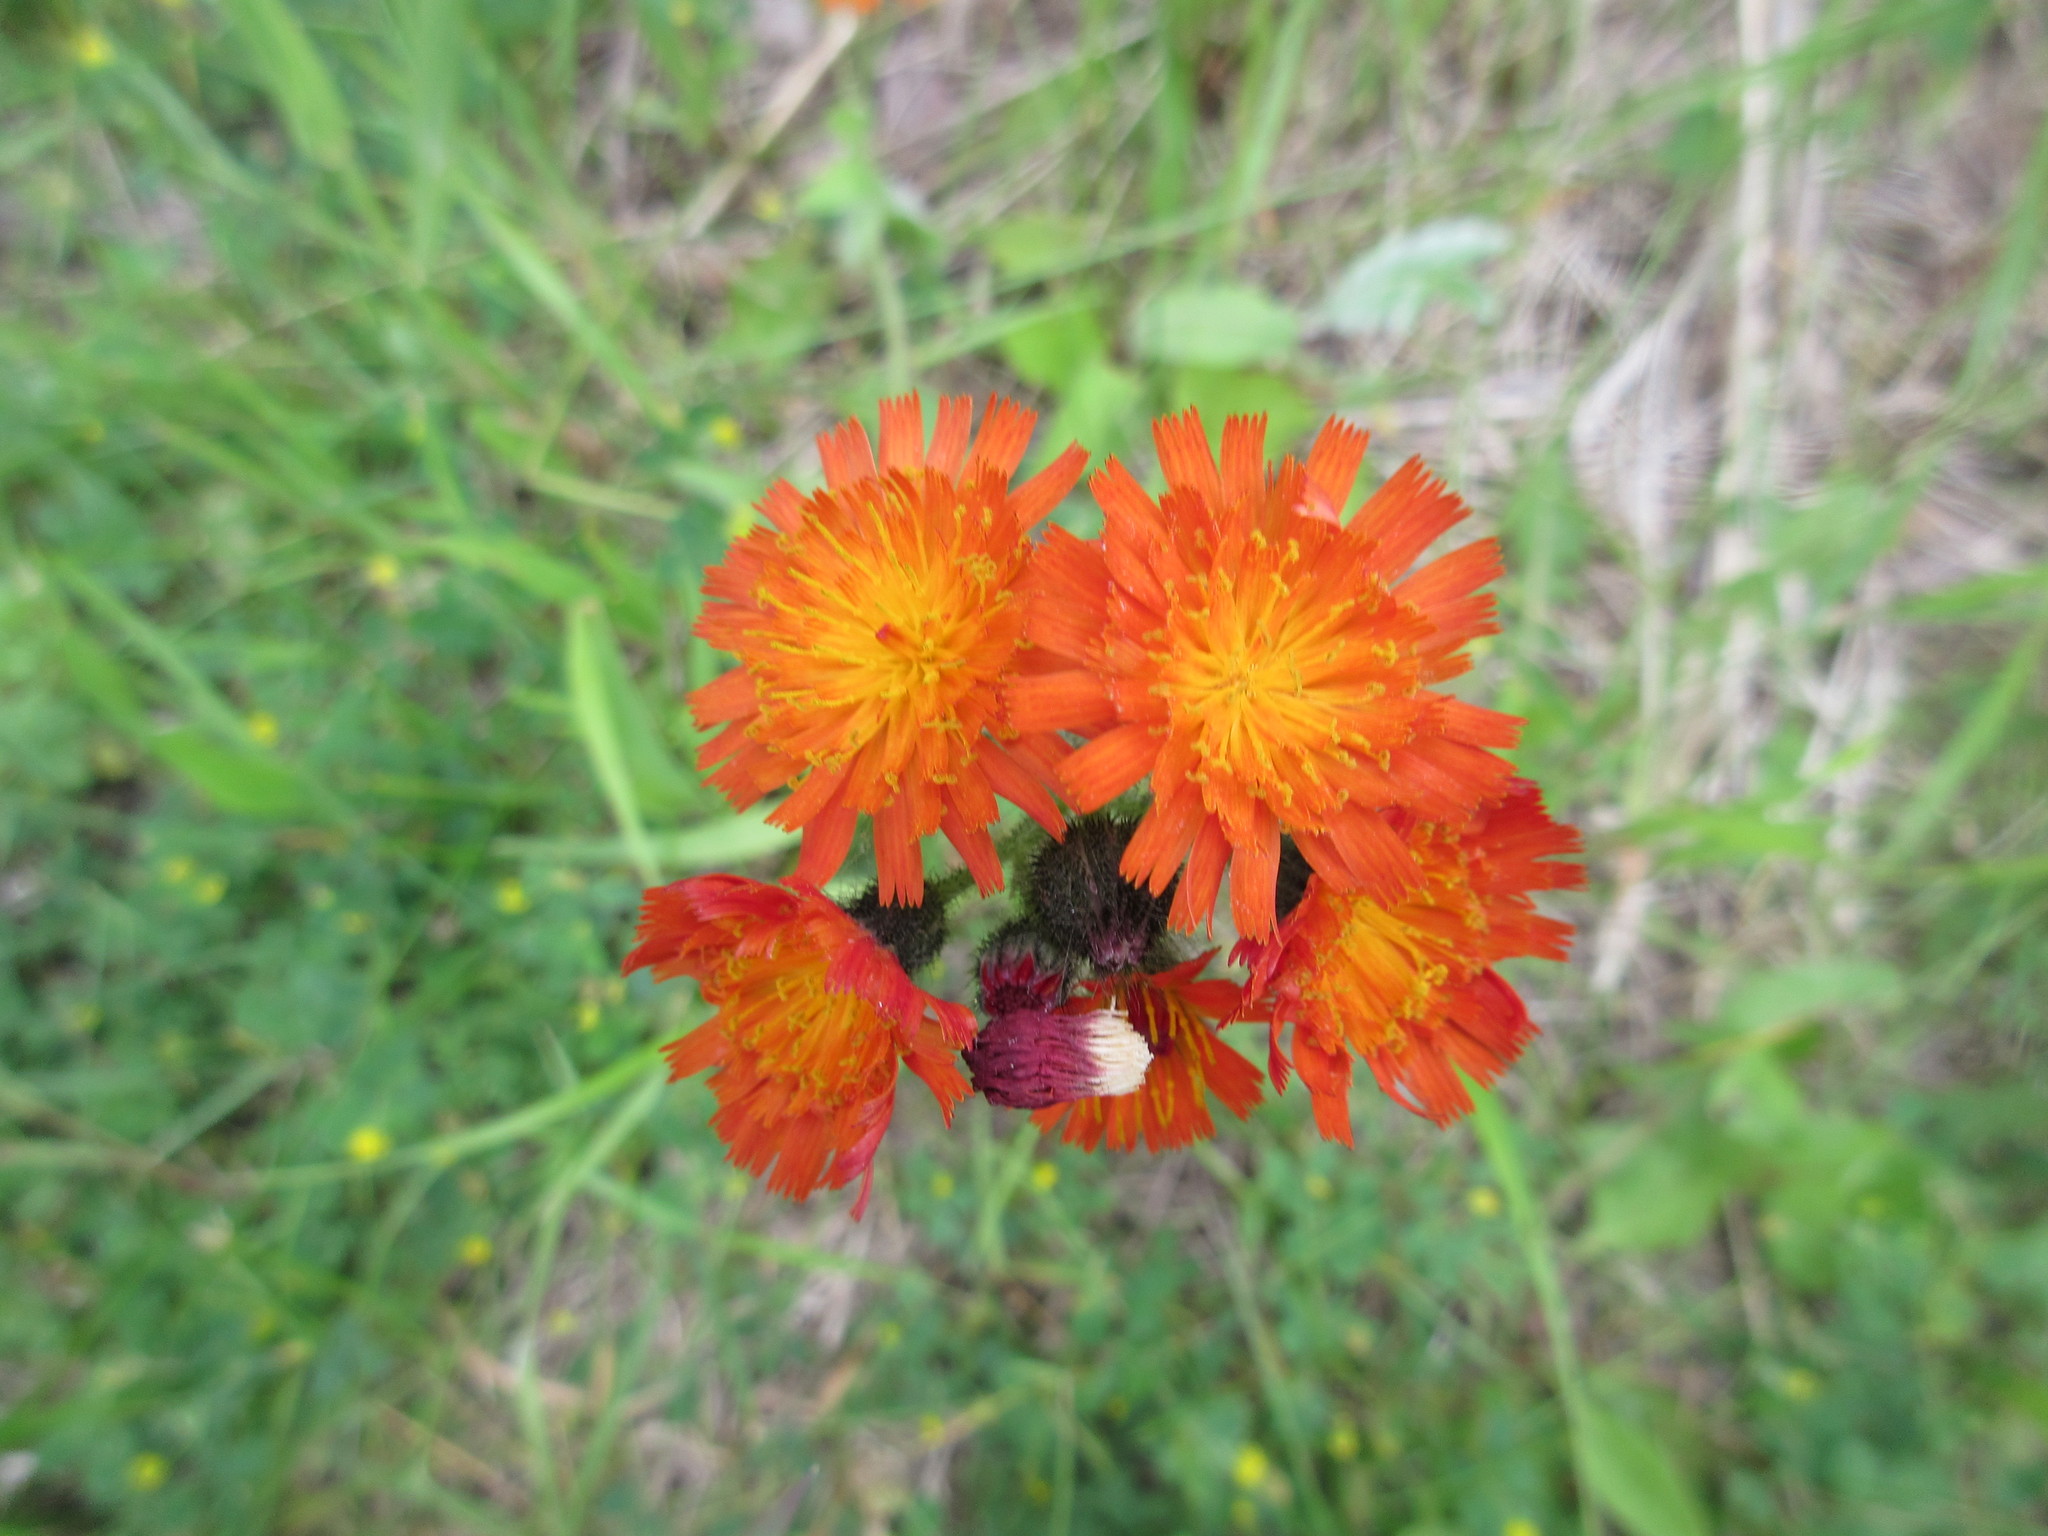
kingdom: Plantae
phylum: Tracheophyta
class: Magnoliopsida
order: Asterales
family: Asteraceae
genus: Pilosella
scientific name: Pilosella aurantiaca
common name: Fox-and-cubs
